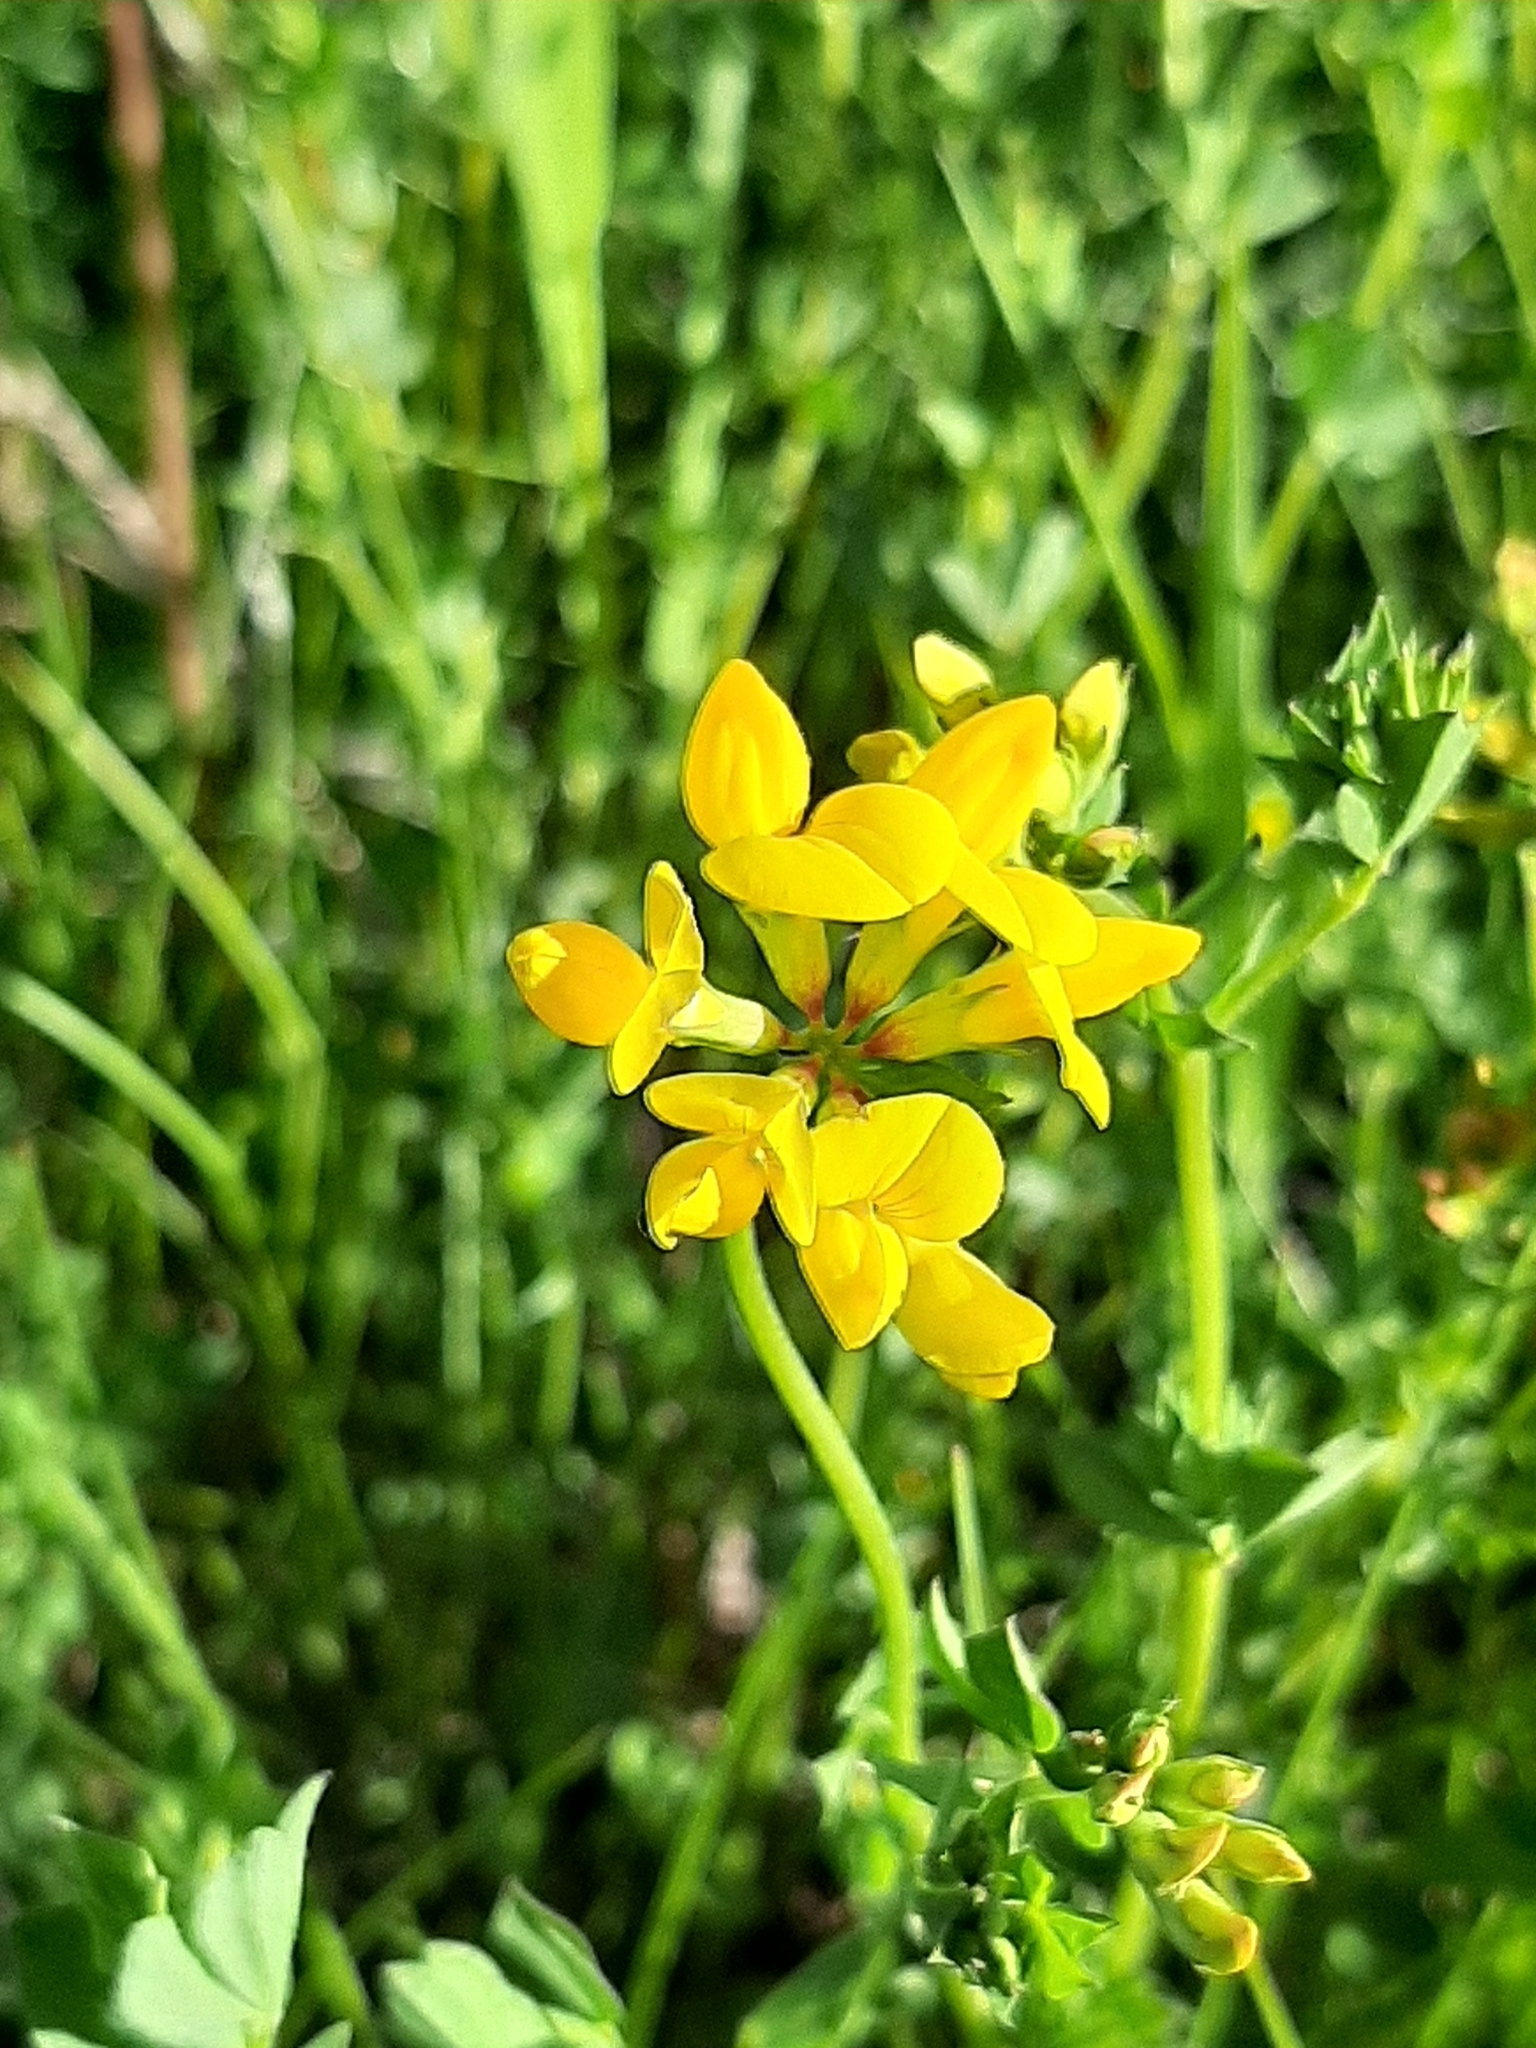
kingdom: Plantae
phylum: Tracheophyta
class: Magnoliopsida
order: Fabales
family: Fabaceae
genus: Lotus
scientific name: Lotus corniculatus
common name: Common bird's-foot-trefoil
